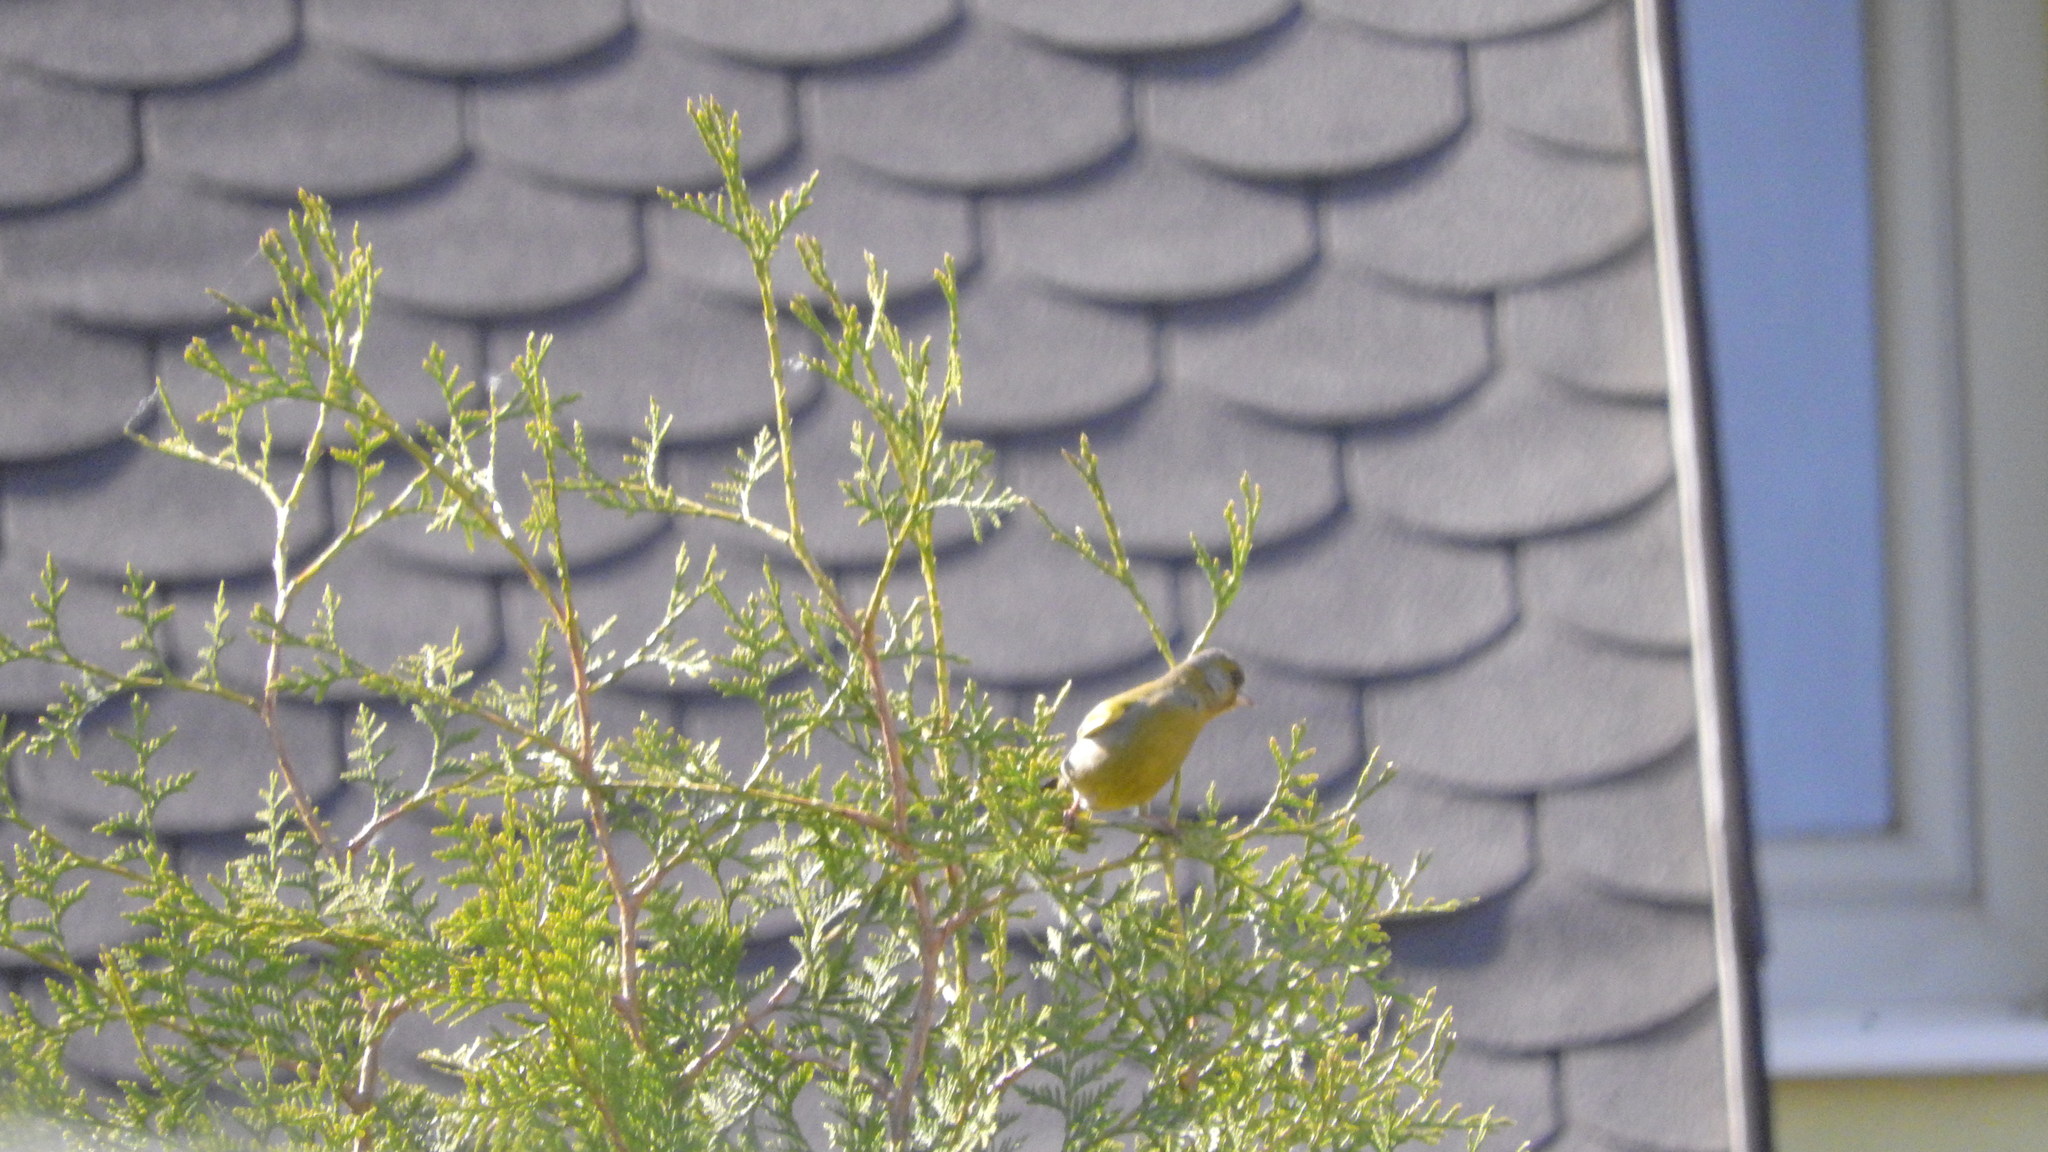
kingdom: Plantae
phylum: Tracheophyta
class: Liliopsida
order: Poales
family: Poaceae
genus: Chloris
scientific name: Chloris chloris
